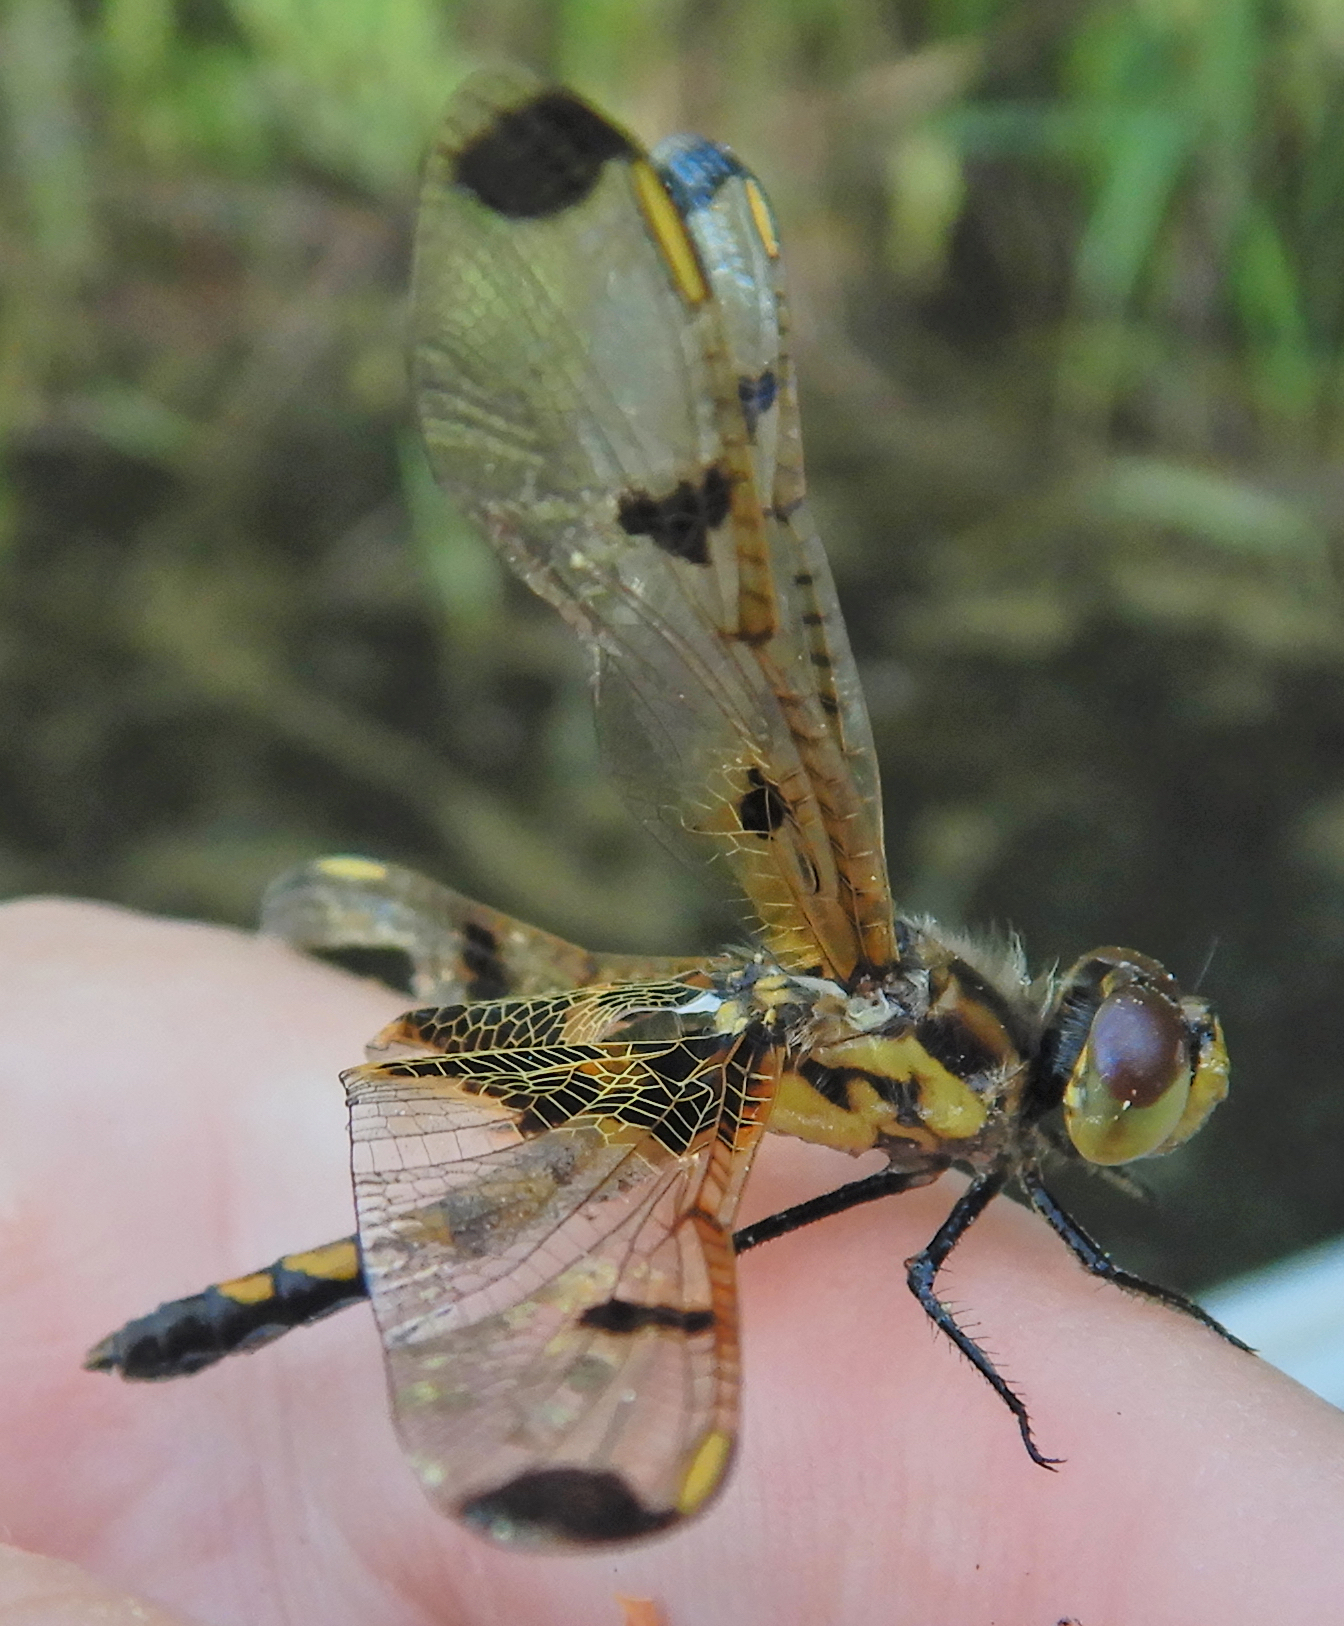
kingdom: Animalia
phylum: Arthropoda
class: Insecta
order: Odonata
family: Libellulidae
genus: Celithemis
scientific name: Celithemis elisa
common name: Calico pennant
